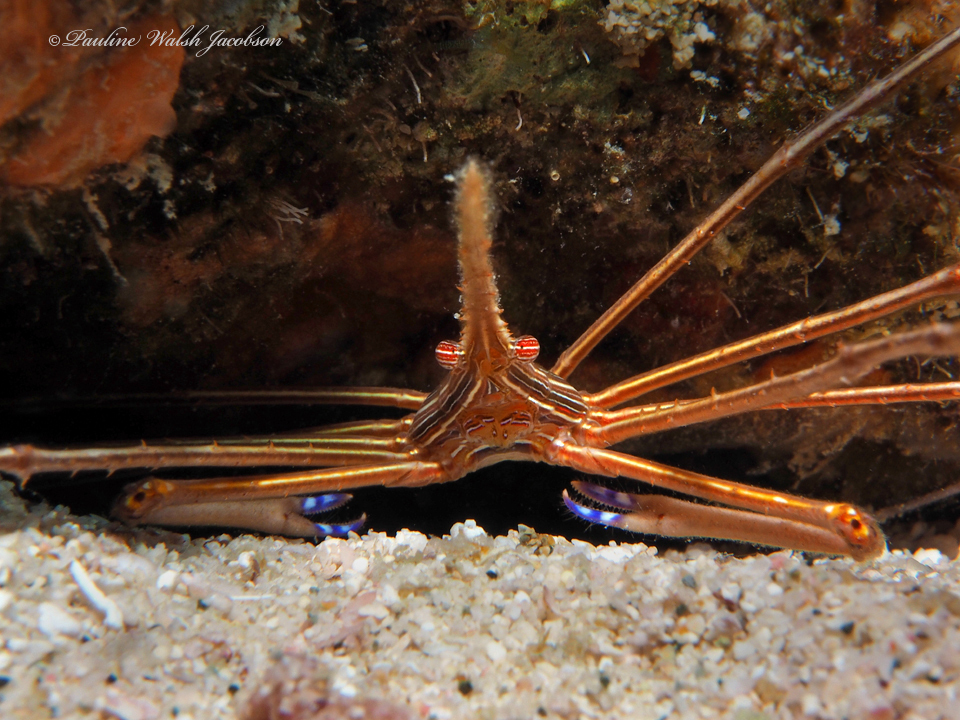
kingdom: Animalia
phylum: Arthropoda
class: Malacostraca
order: Decapoda
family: Inachoididae
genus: Stenorhynchus
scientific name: Stenorhynchus seticornis
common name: Arrow crab
